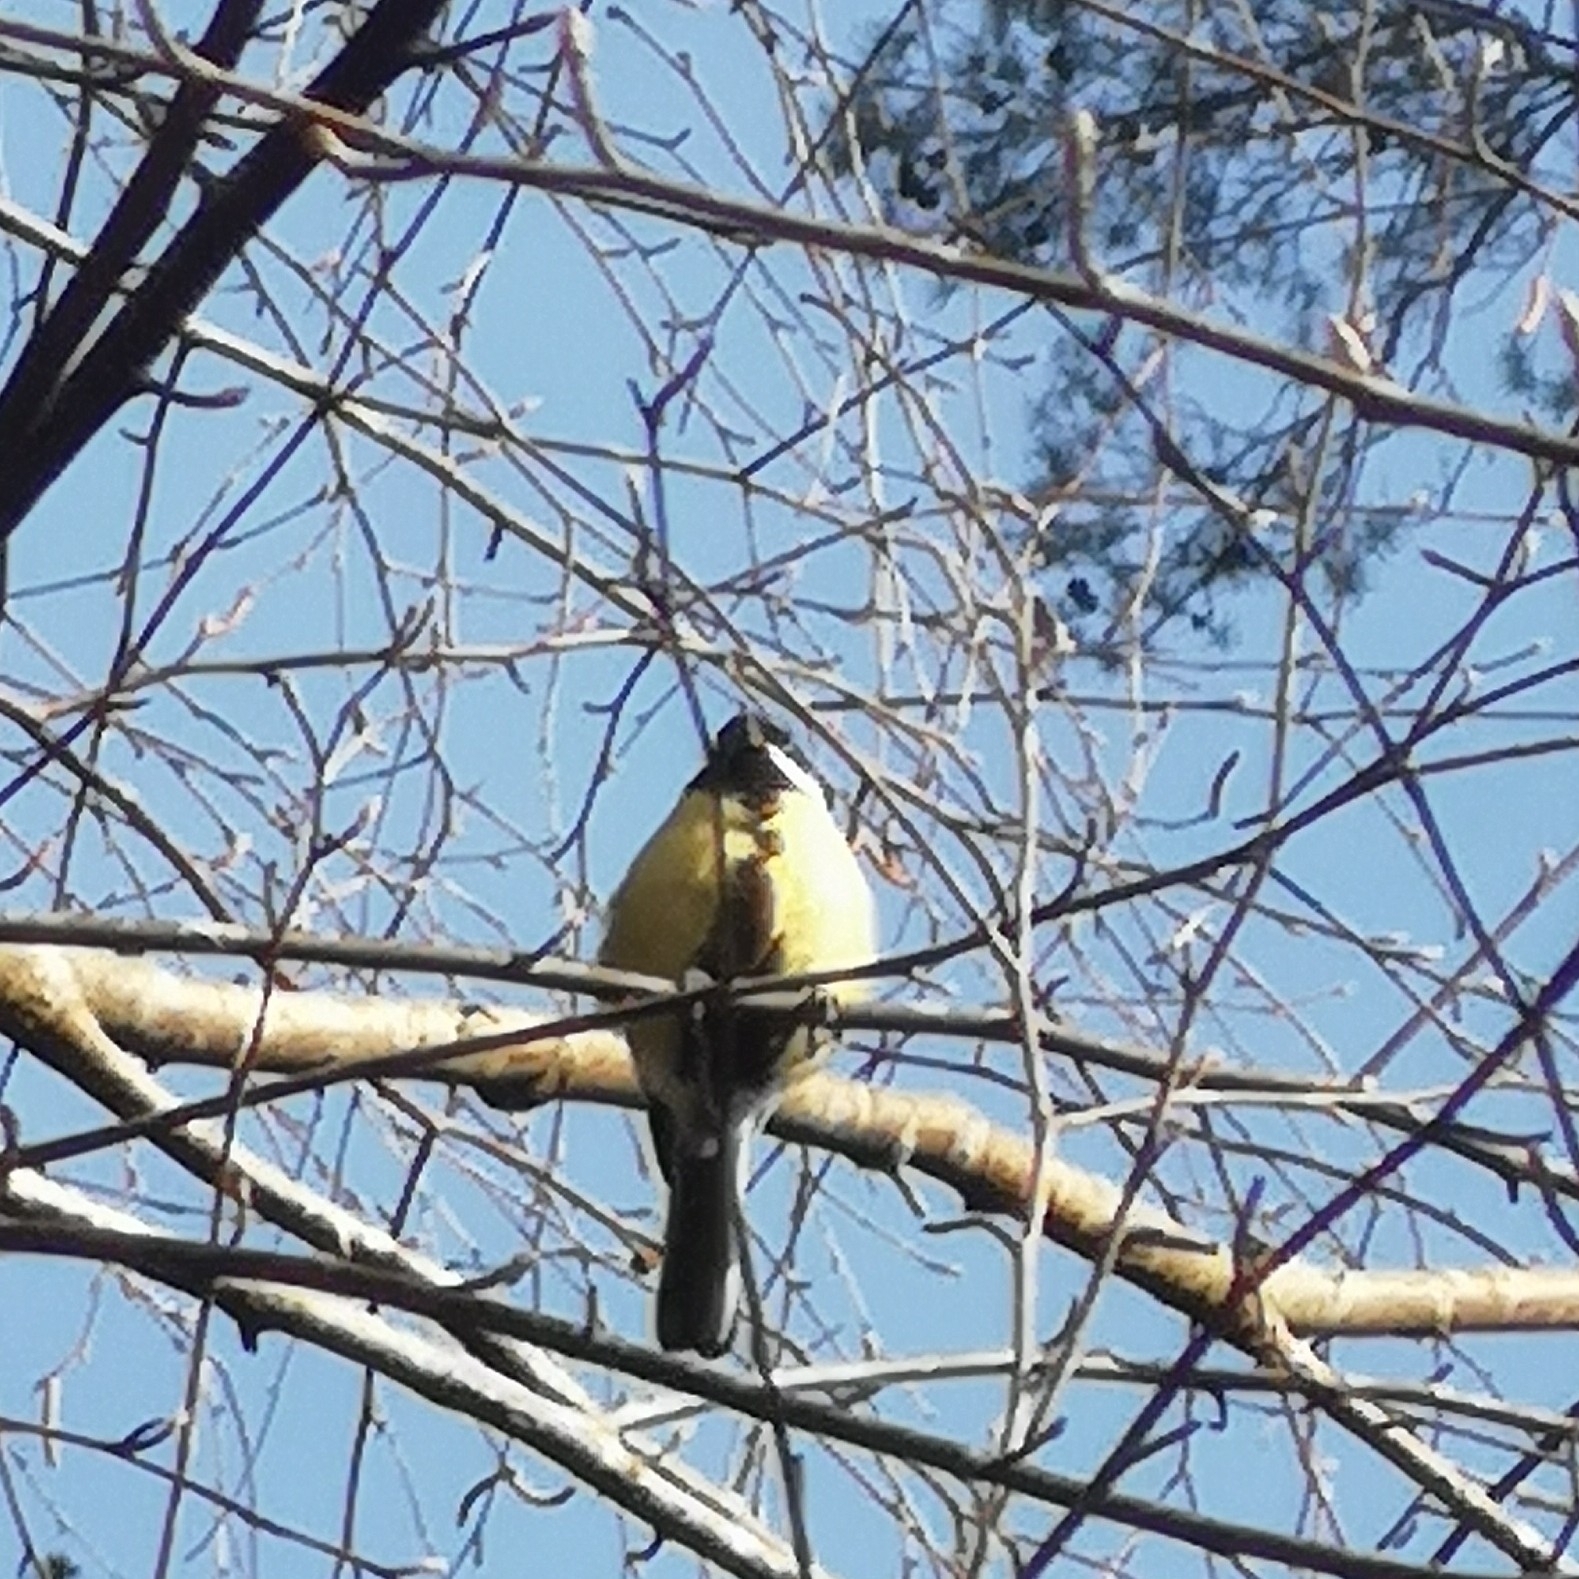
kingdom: Animalia
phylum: Chordata
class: Aves
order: Passeriformes
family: Paridae
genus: Parus
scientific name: Parus major
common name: Great tit
